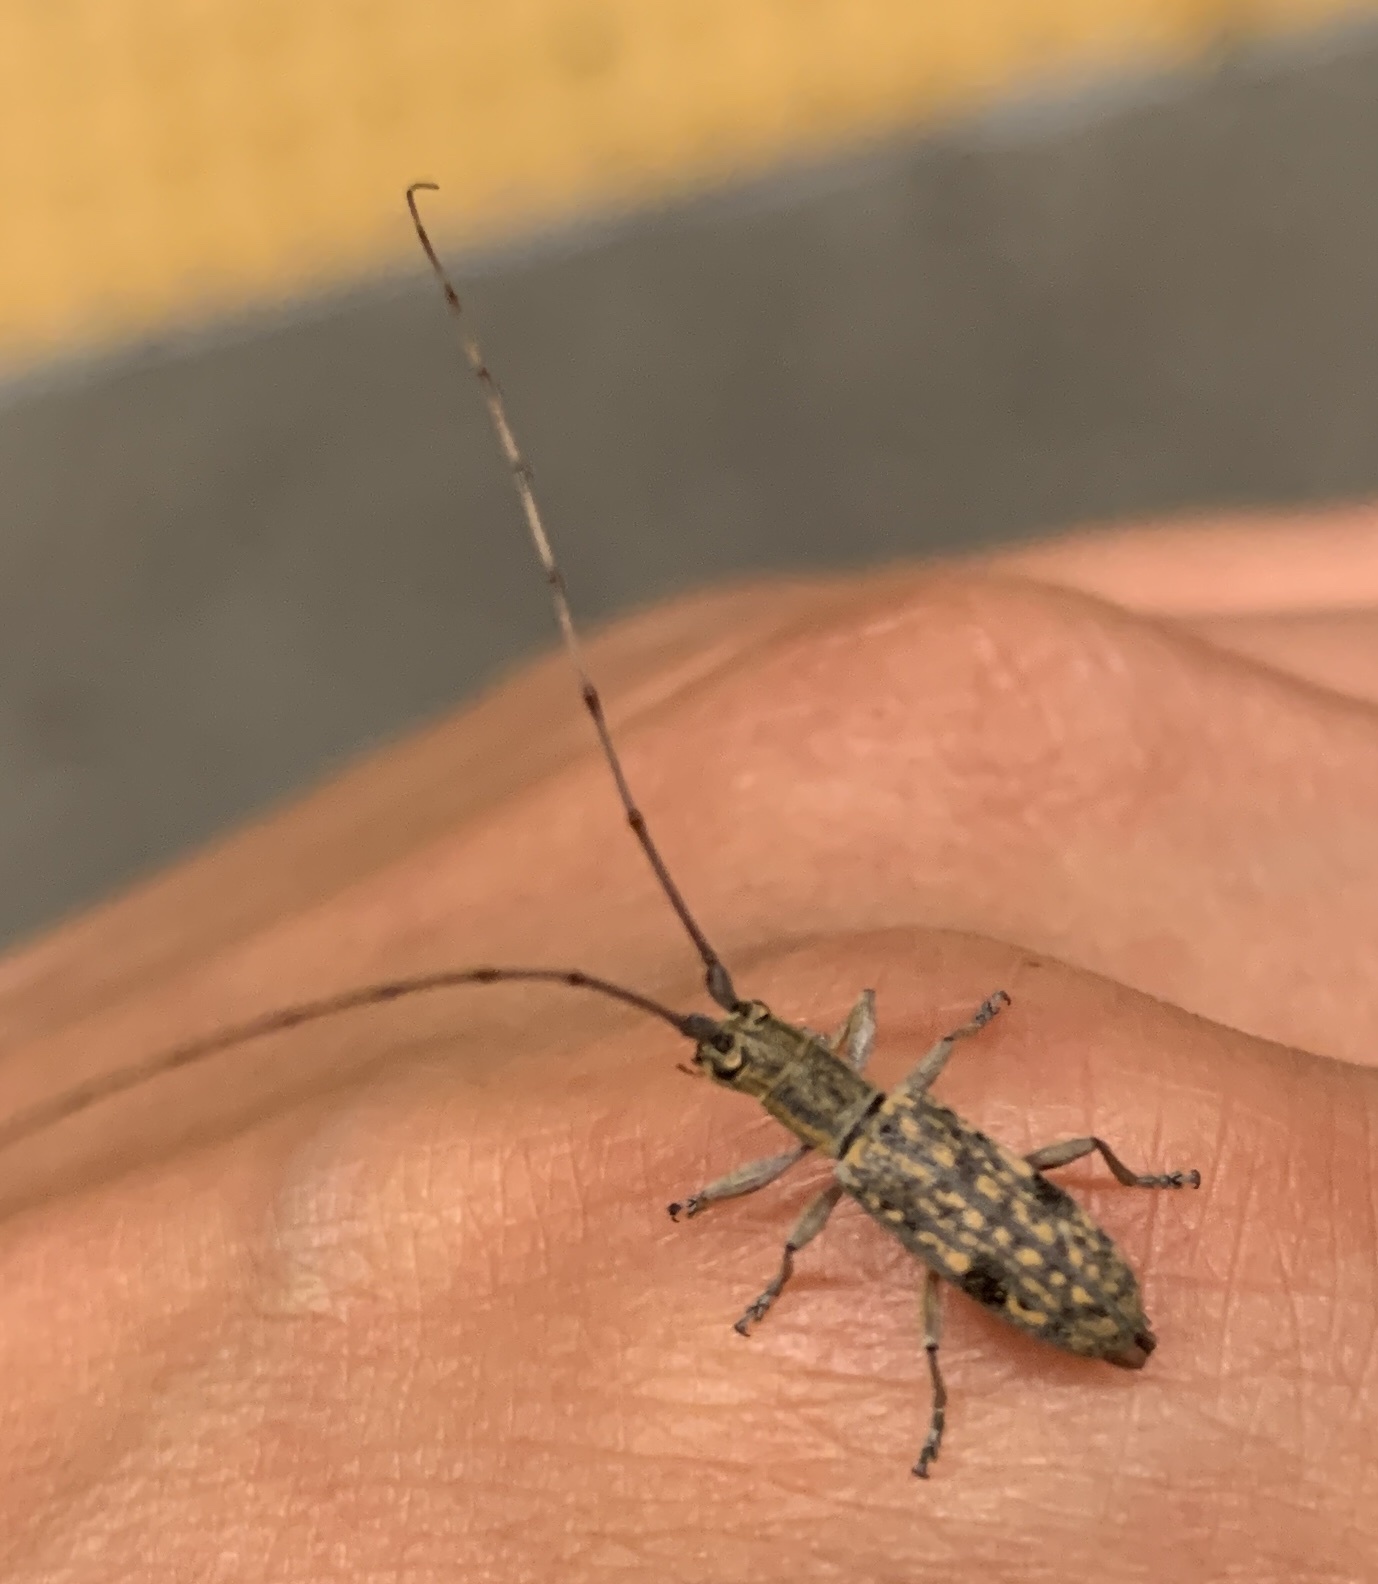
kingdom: Animalia
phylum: Arthropoda
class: Insecta
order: Coleoptera
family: Cerambycidae
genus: Dorcaschema
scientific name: Dorcaschema alternatum
